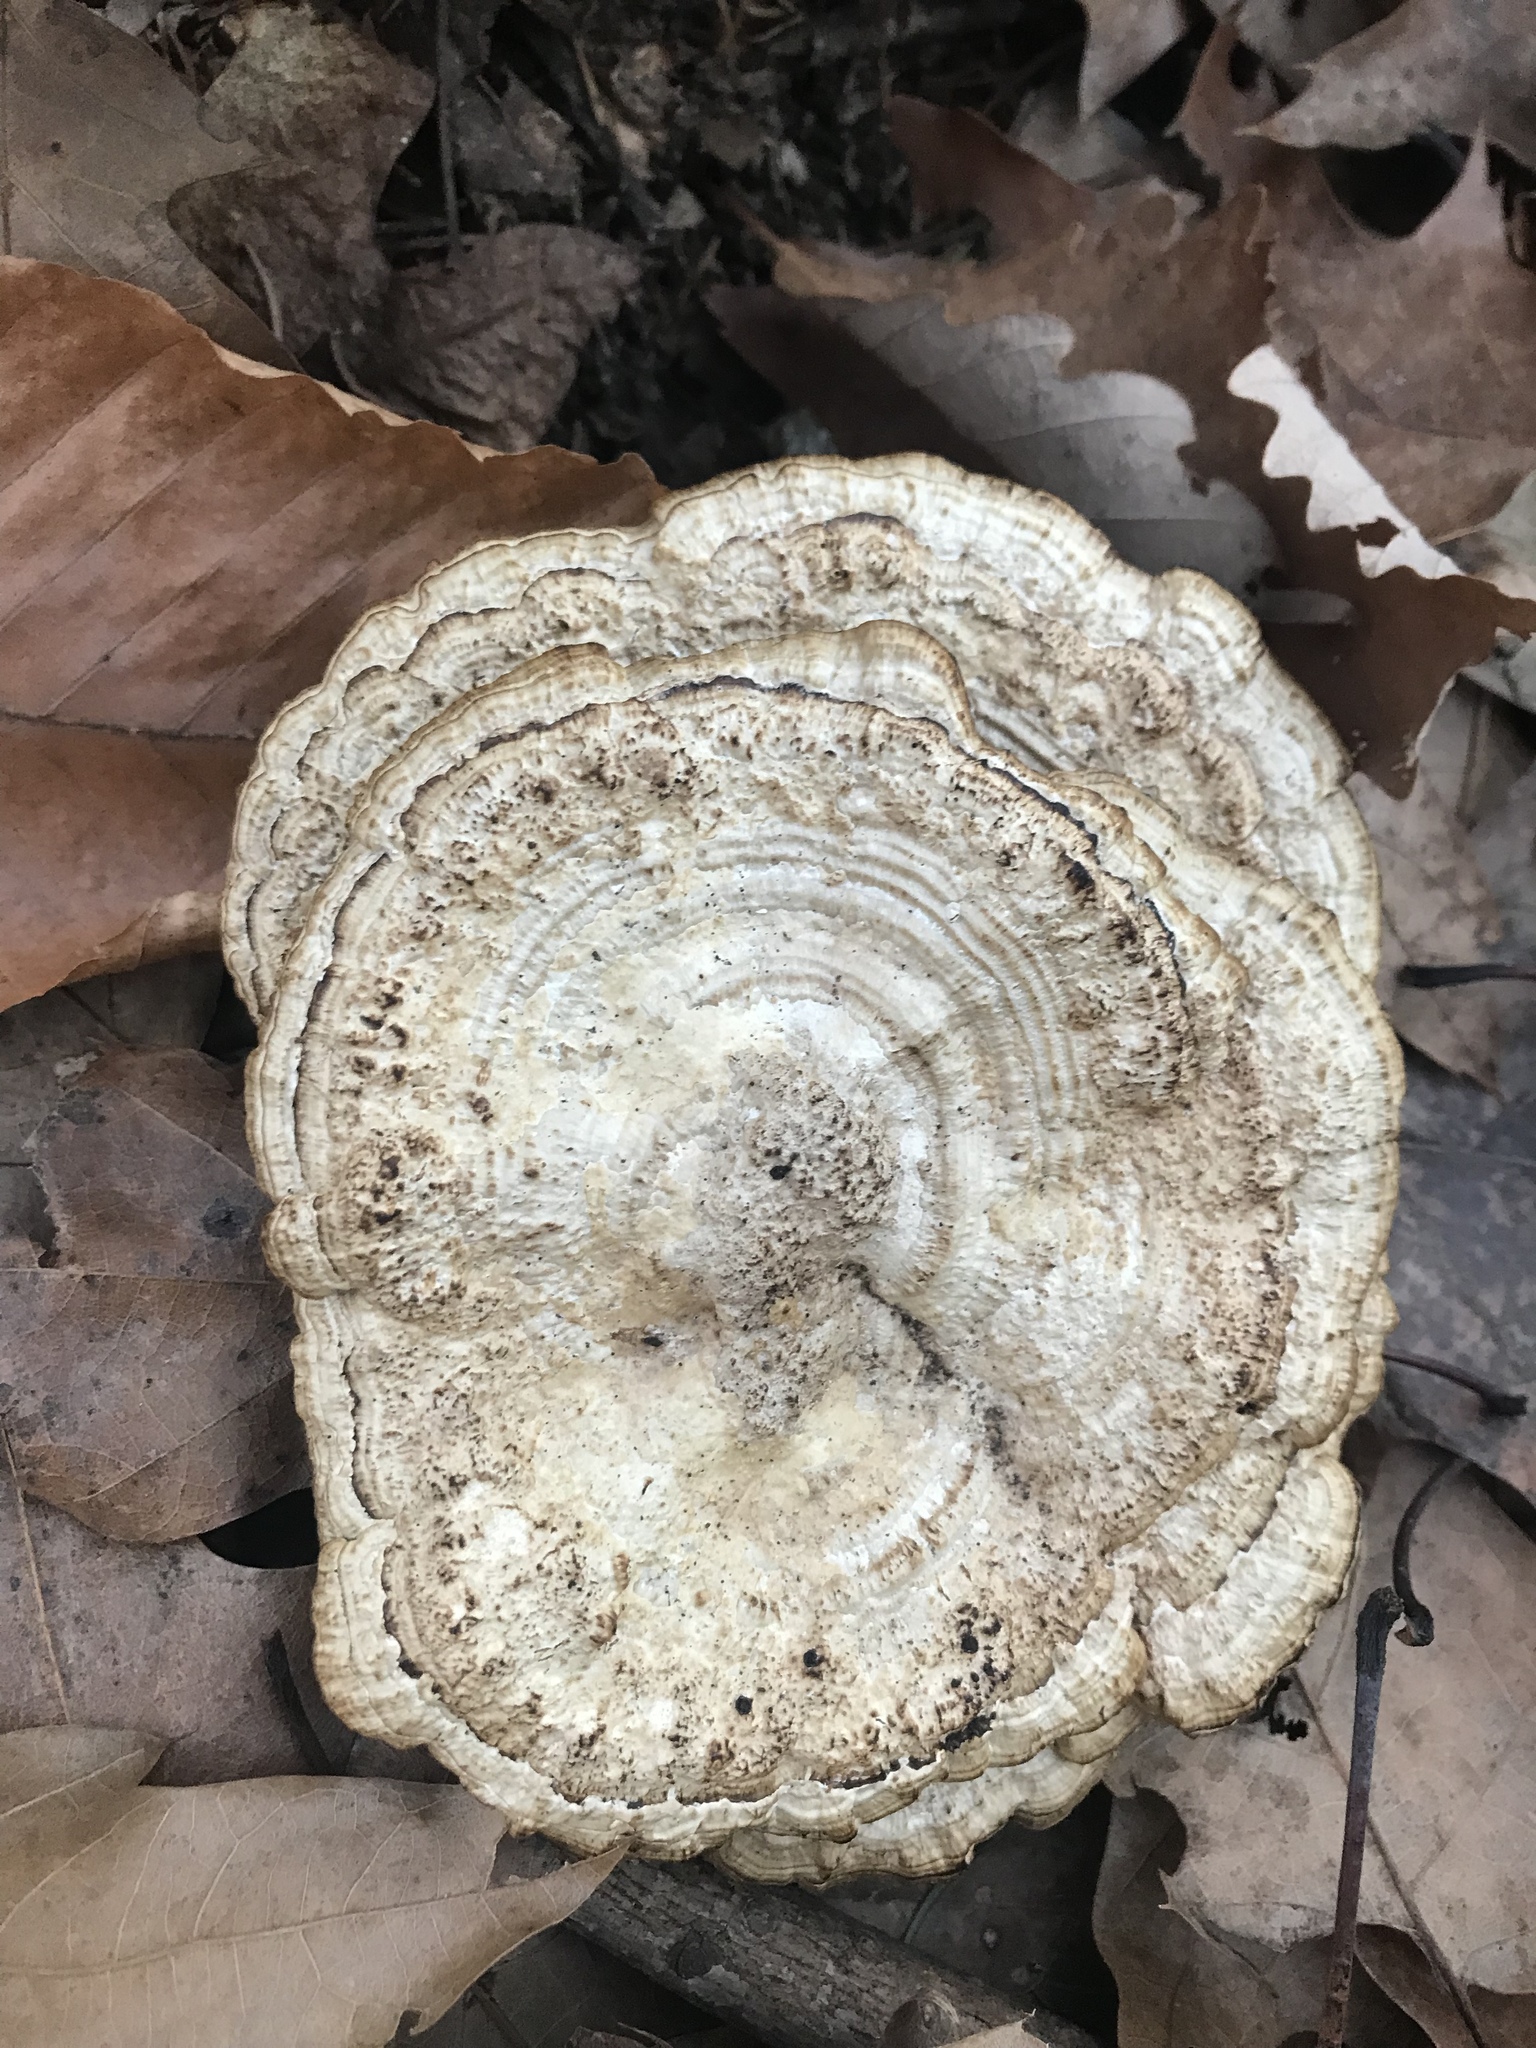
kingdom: Fungi
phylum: Basidiomycota
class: Agaricomycetes
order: Polyporales
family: Polyporaceae
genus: Daedaleopsis
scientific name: Daedaleopsis confragosa
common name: Blushing bracket
